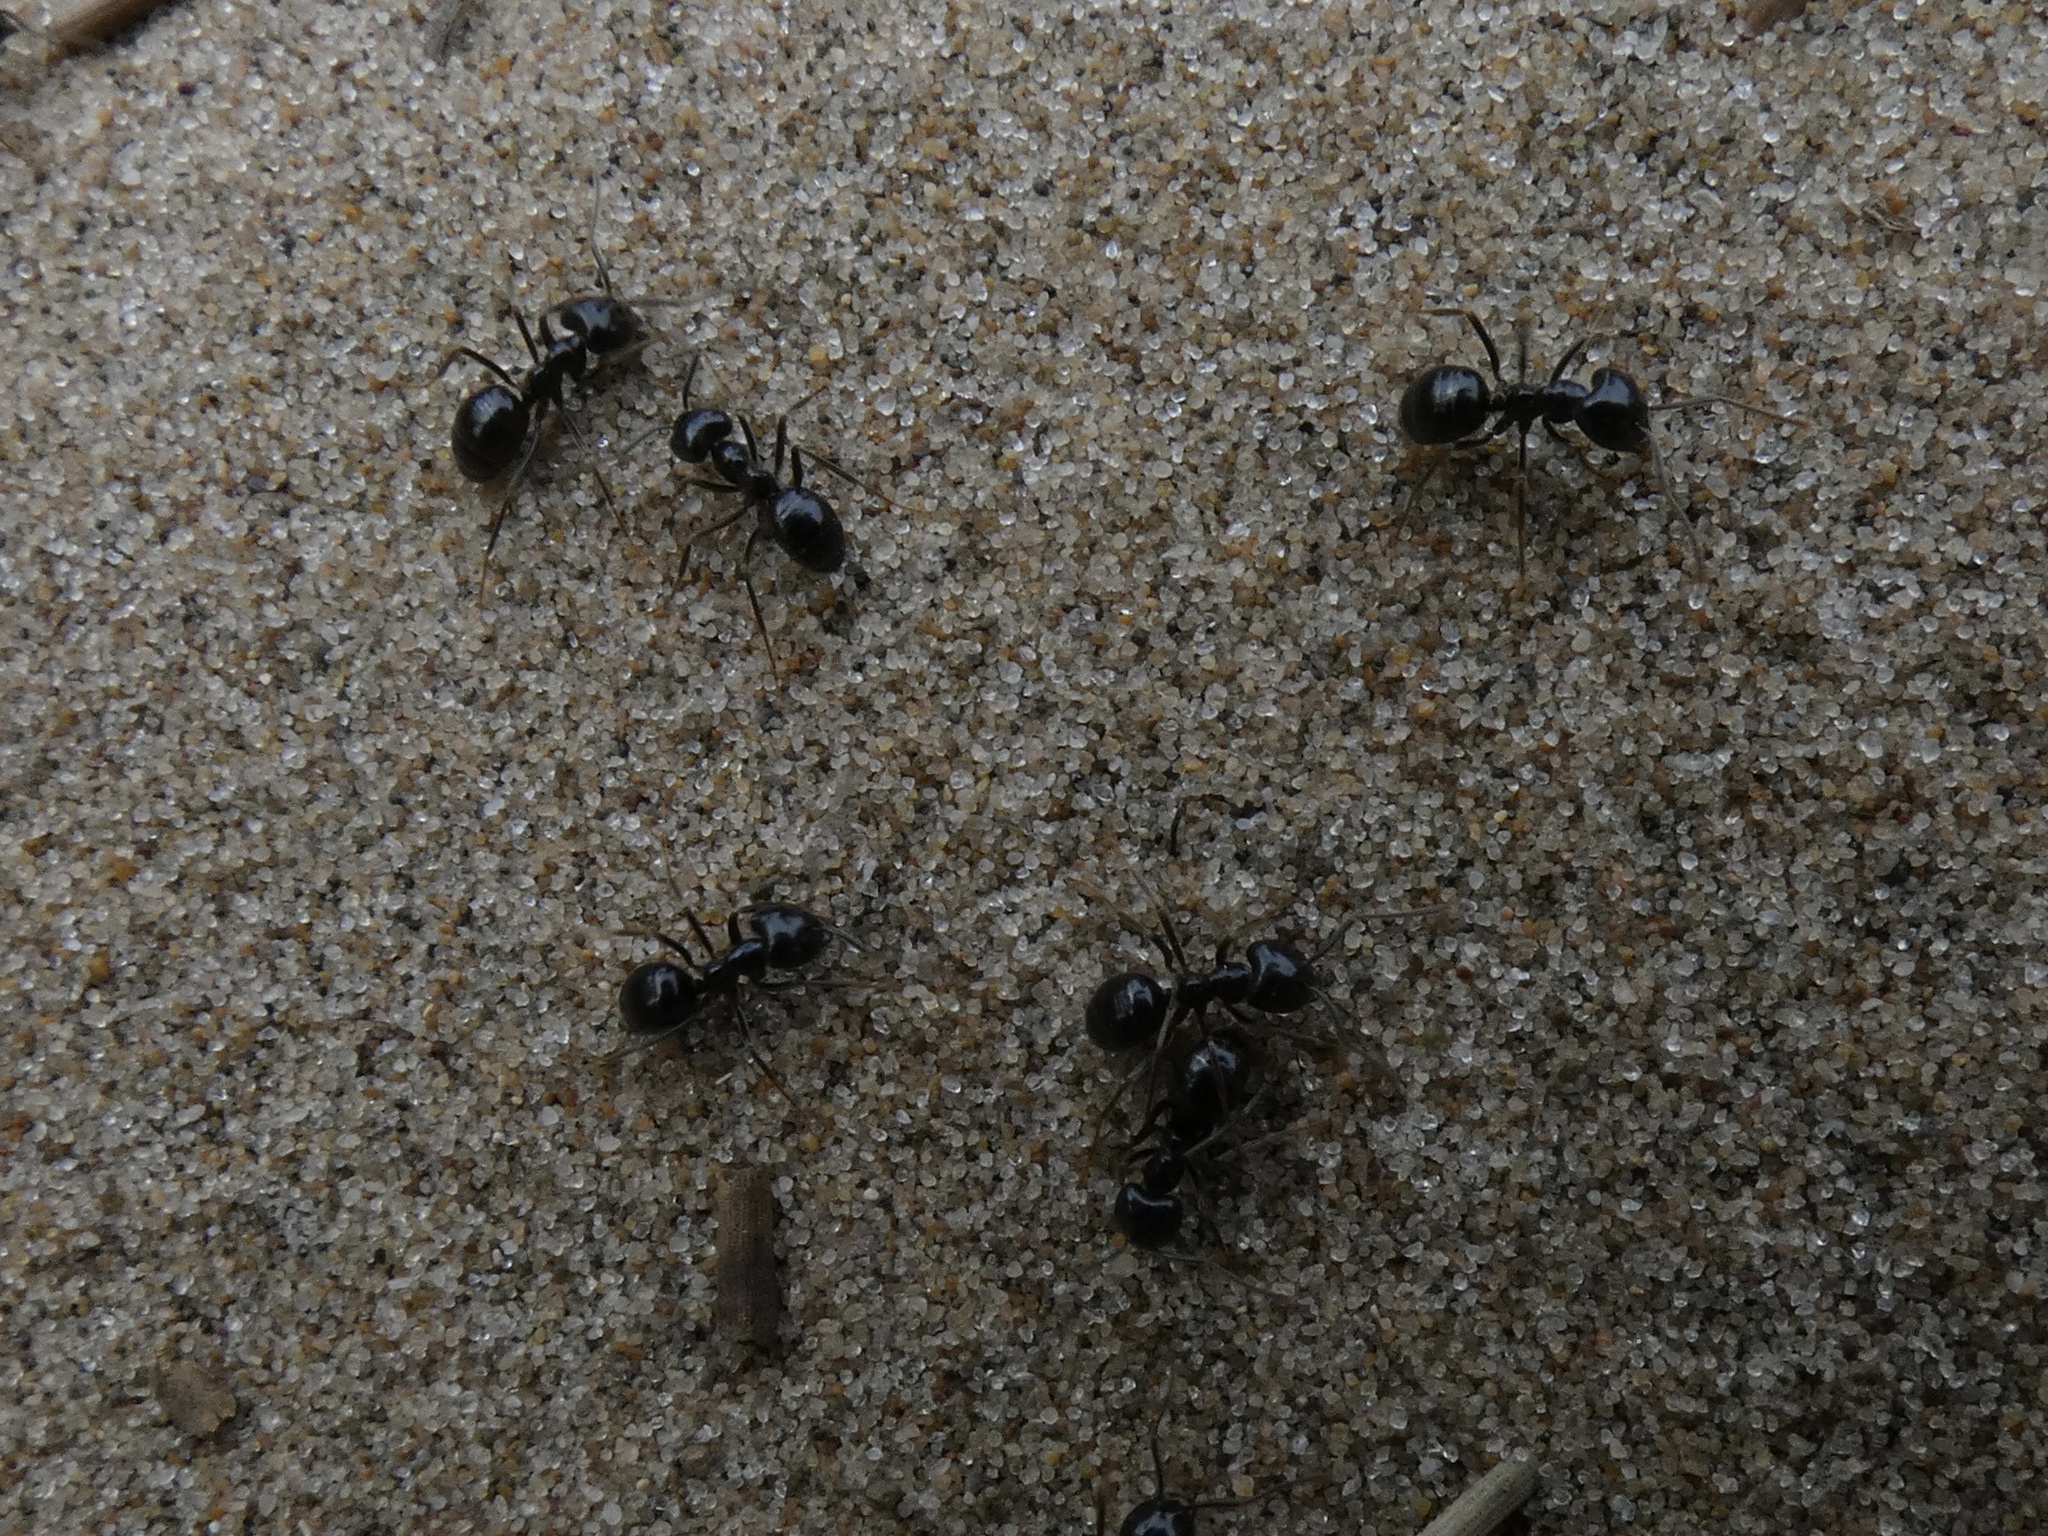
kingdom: Animalia
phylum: Arthropoda
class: Insecta
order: Hymenoptera
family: Formicidae
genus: Lasius
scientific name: Lasius fuliginosus
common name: Jet ant
